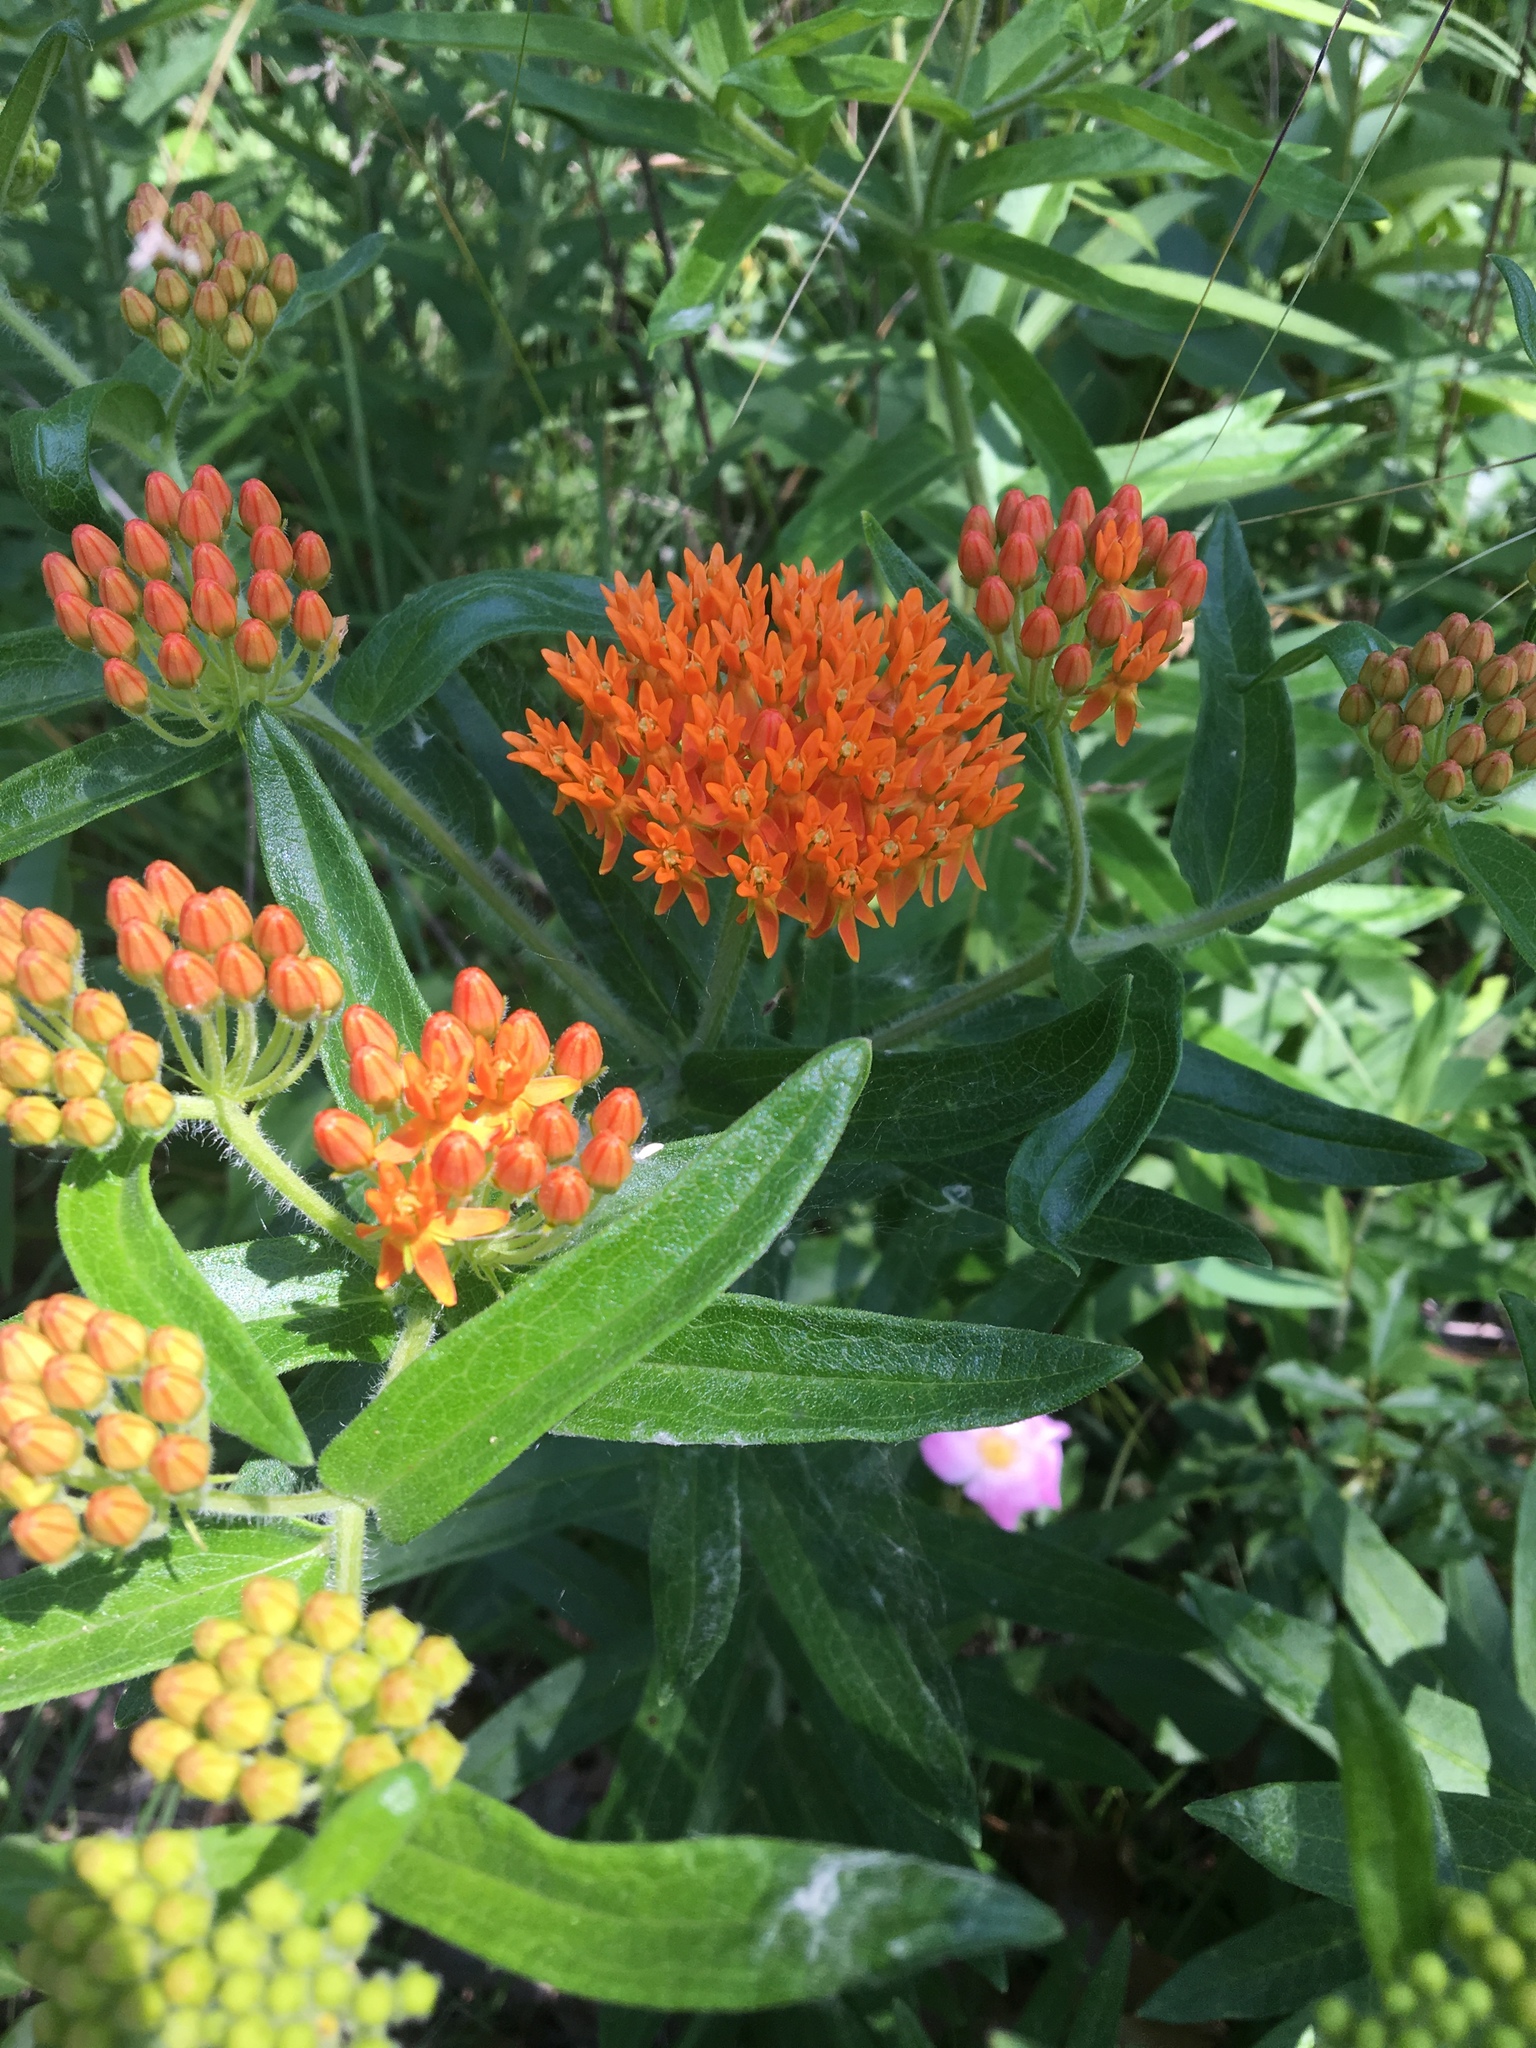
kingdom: Plantae
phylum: Tracheophyta
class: Magnoliopsida
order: Gentianales
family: Apocynaceae
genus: Asclepias
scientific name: Asclepias tuberosa
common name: Butterfly milkweed
